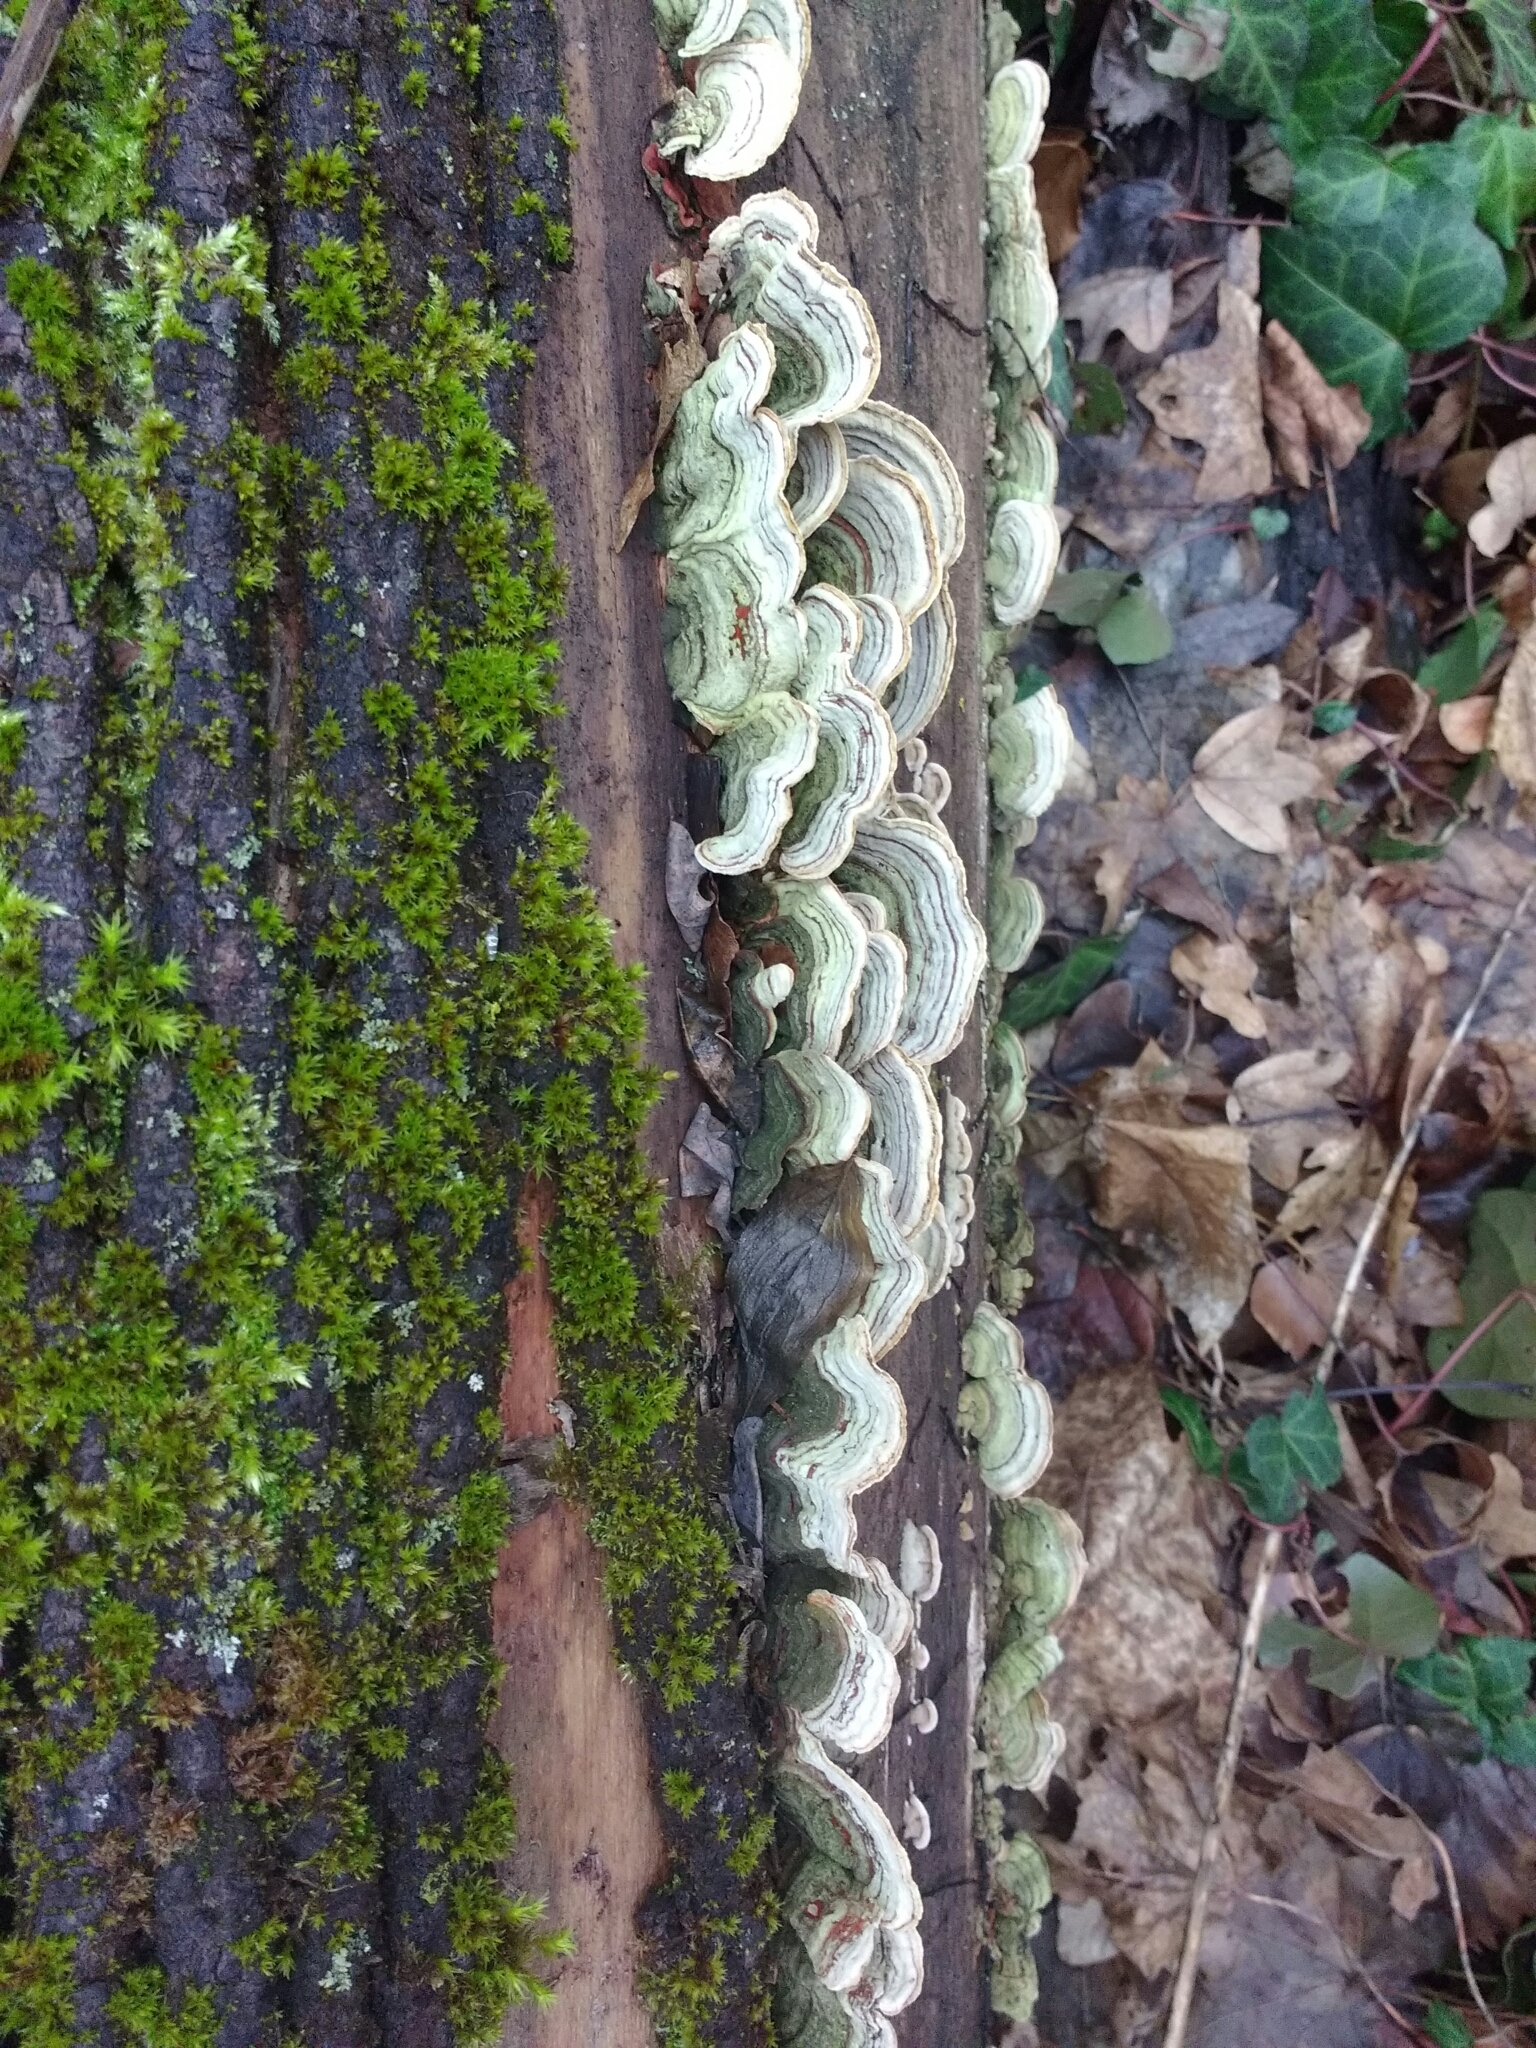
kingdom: Fungi
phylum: Basidiomycota
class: Agaricomycetes
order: Russulales
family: Stereaceae
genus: Stereum
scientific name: Stereum subtomentosum
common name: Yellowing curtain crust
